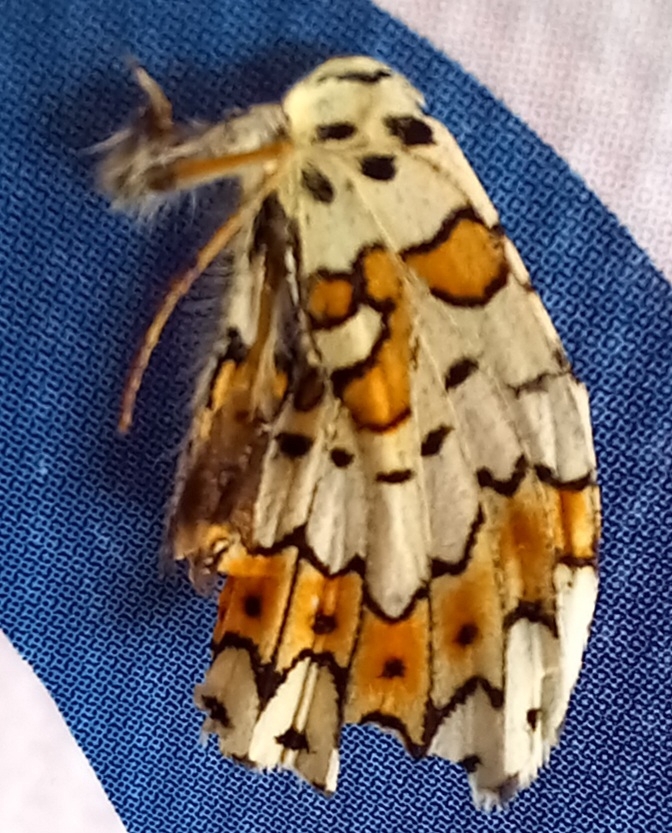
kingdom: Animalia
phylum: Arthropoda
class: Insecta
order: Lepidoptera
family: Nymphalidae
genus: Melitaea
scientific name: Melitaea cinxia
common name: Glanville fritillary
